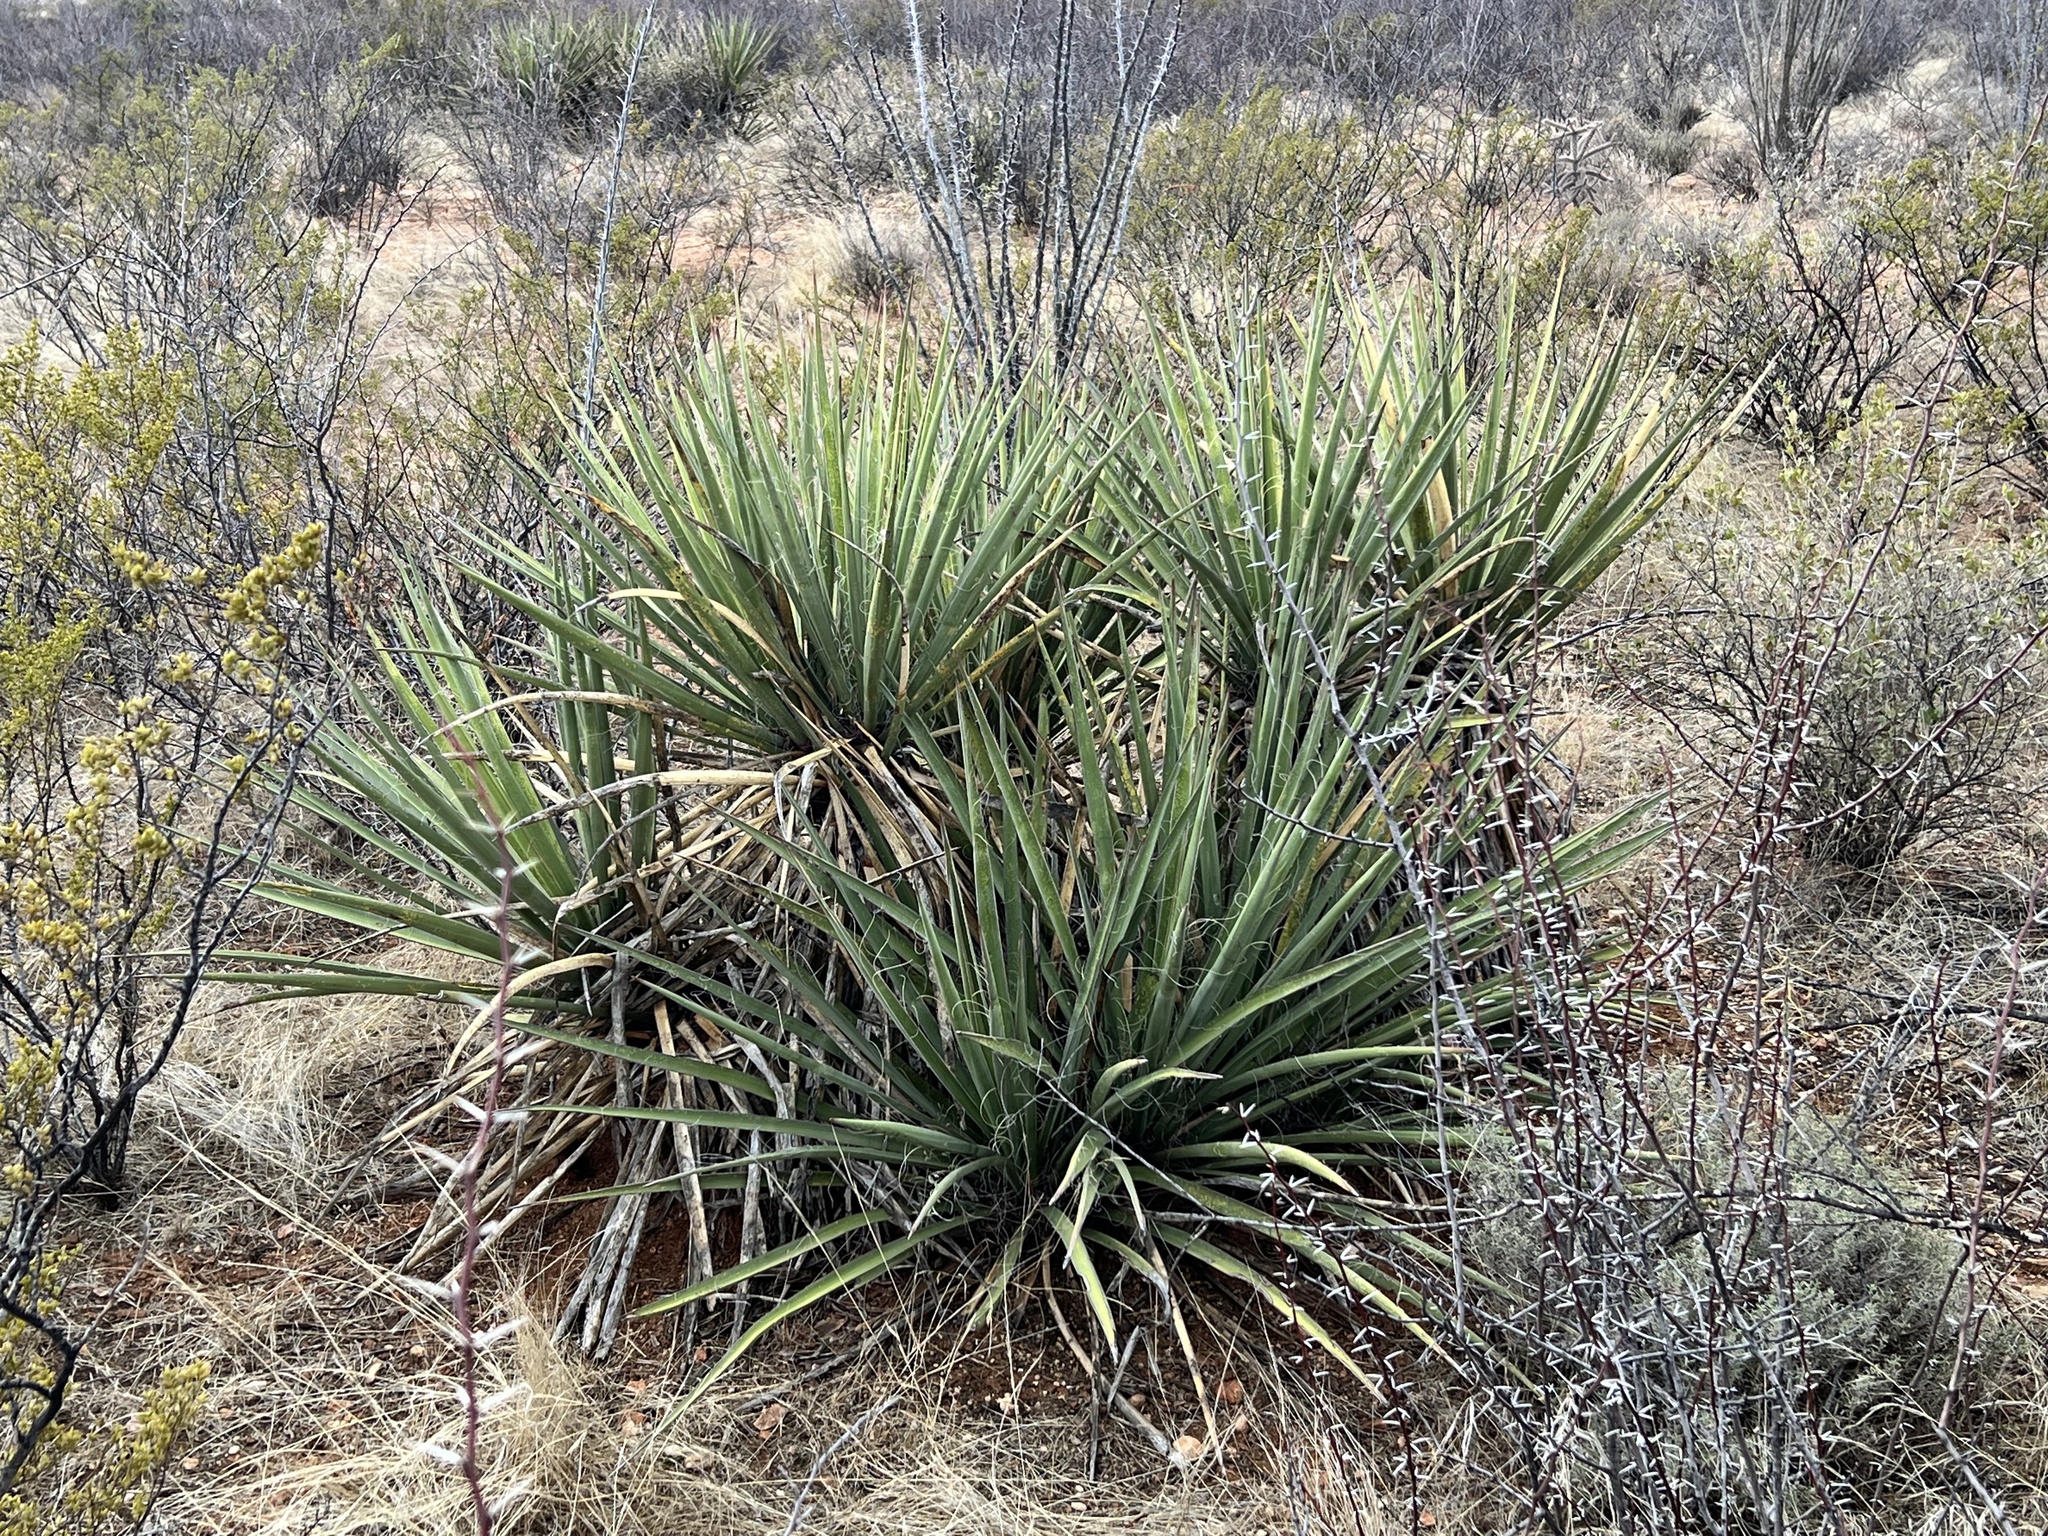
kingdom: Plantae
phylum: Tracheophyta
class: Liliopsida
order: Asparagales
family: Asparagaceae
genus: Yucca
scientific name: Yucca baccata
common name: Banana yucca
